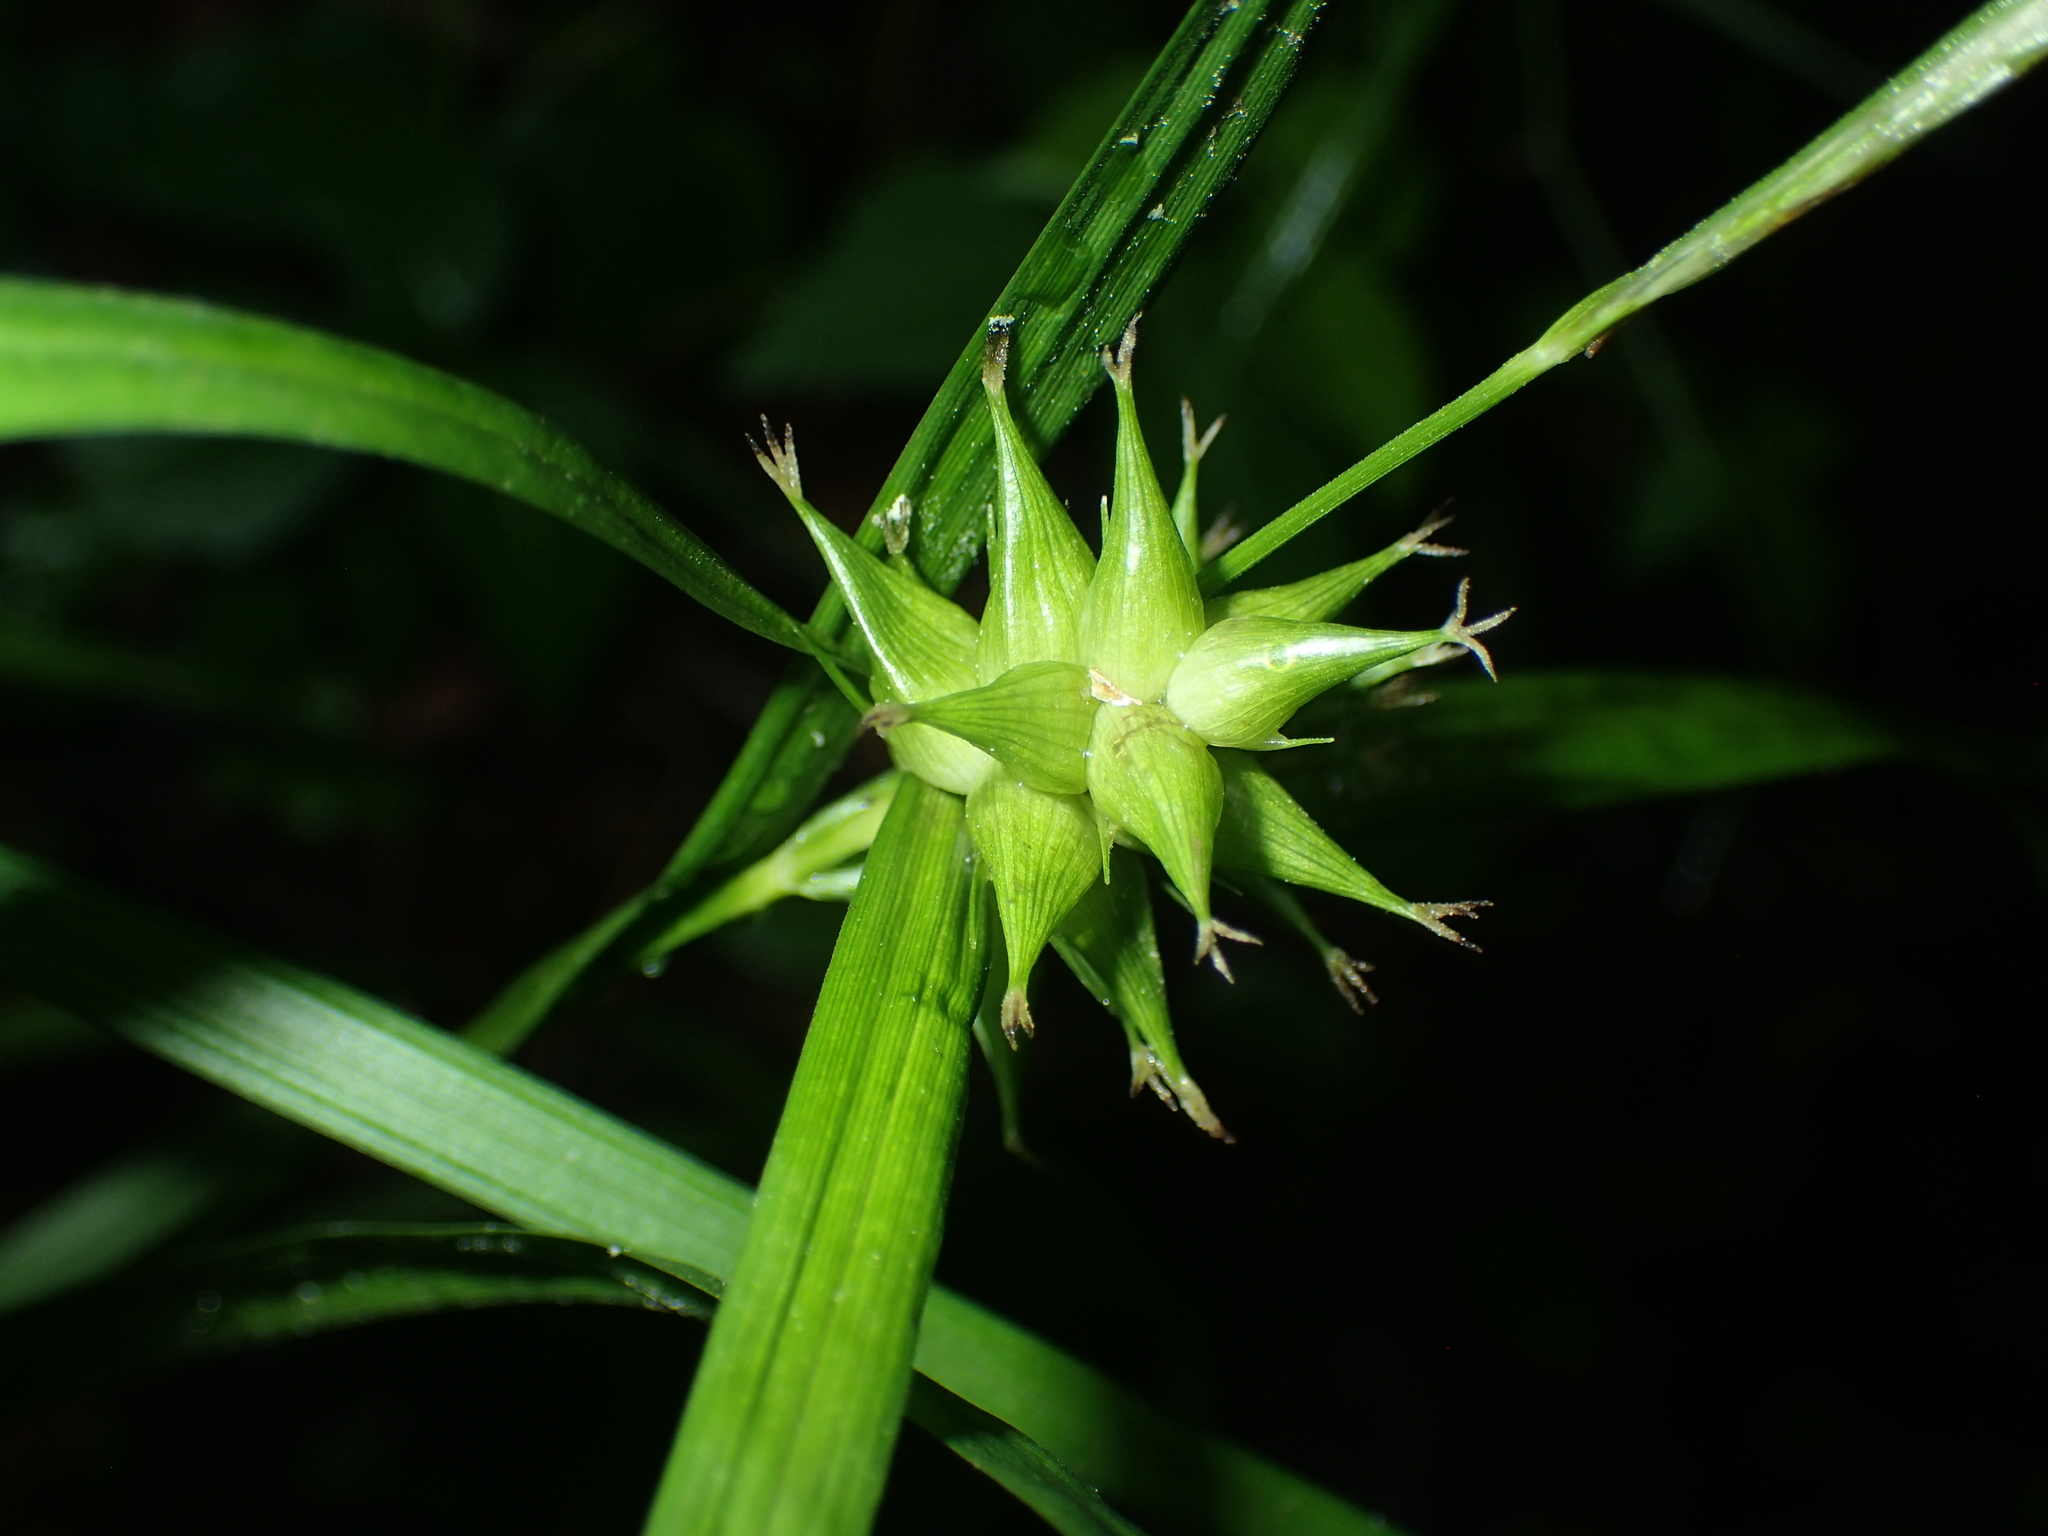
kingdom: Plantae
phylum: Tracheophyta
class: Liliopsida
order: Poales
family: Cyperaceae
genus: Carex
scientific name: Carex intumescens
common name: Greater bladder sedge
